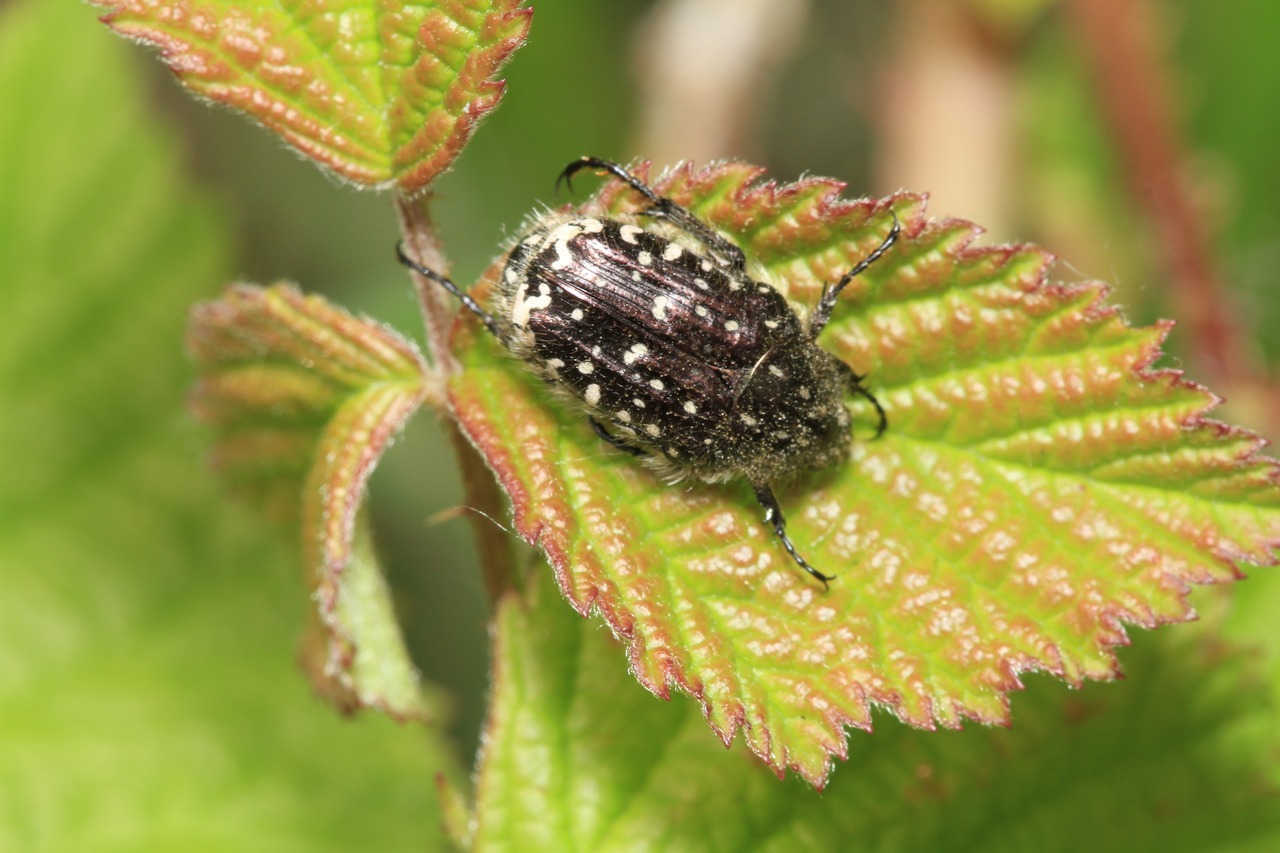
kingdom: Animalia
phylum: Arthropoda
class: Insecta
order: Coleoptera
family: Scarabaeidae
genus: Oxythyrea
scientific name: Oxythyrea funesta
